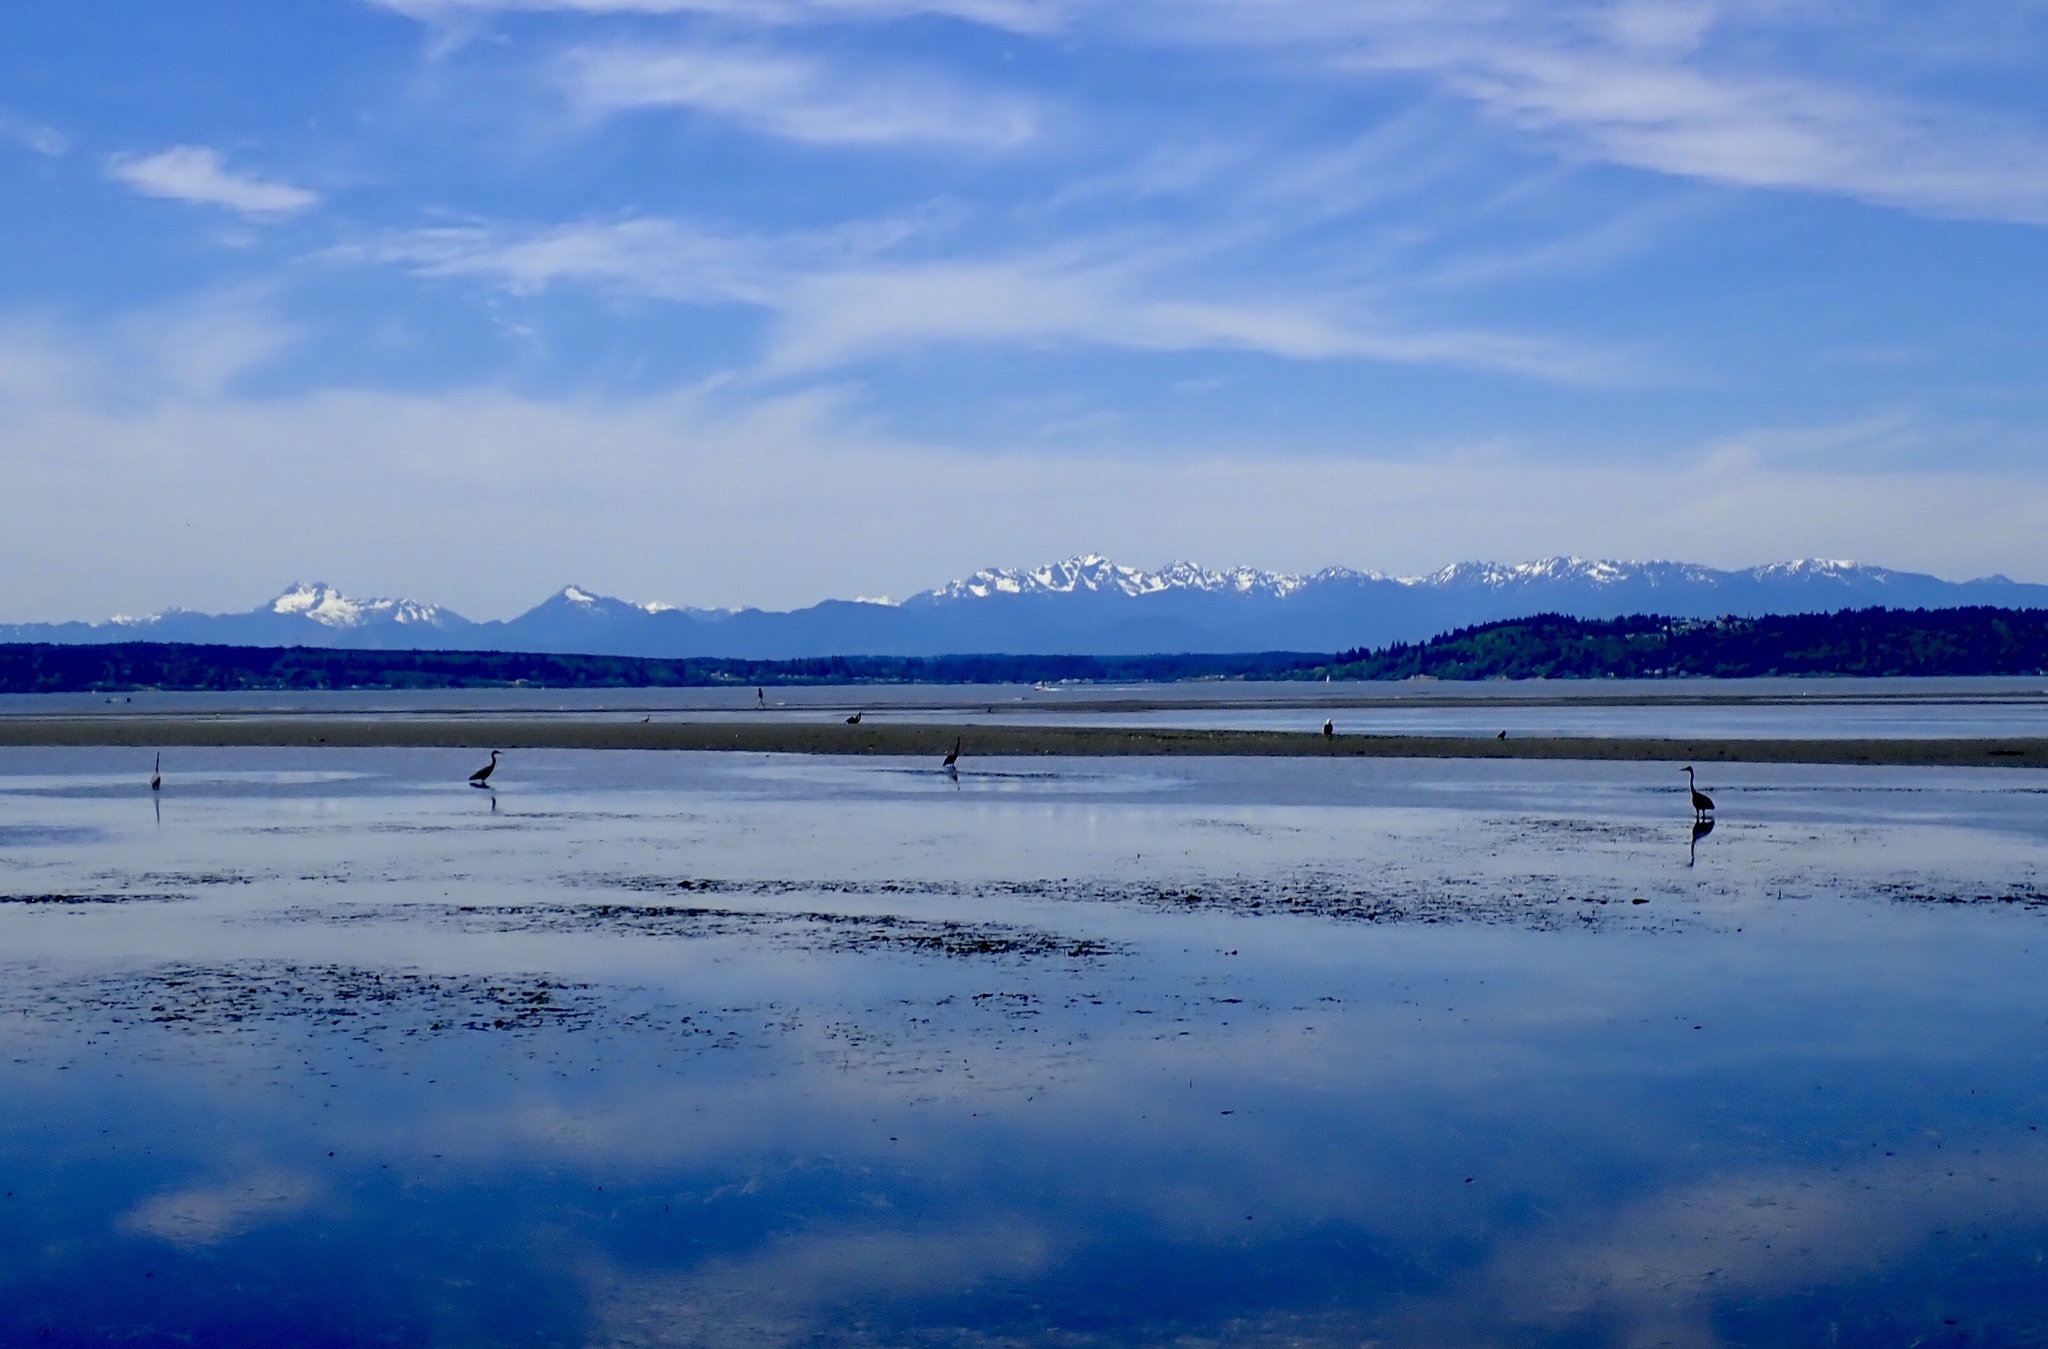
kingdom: Animalia
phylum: Chordata
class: Aves
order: Pelecaniformes
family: Ardeidae
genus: Ardea
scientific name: Ardea herodias
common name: Great blue heron
